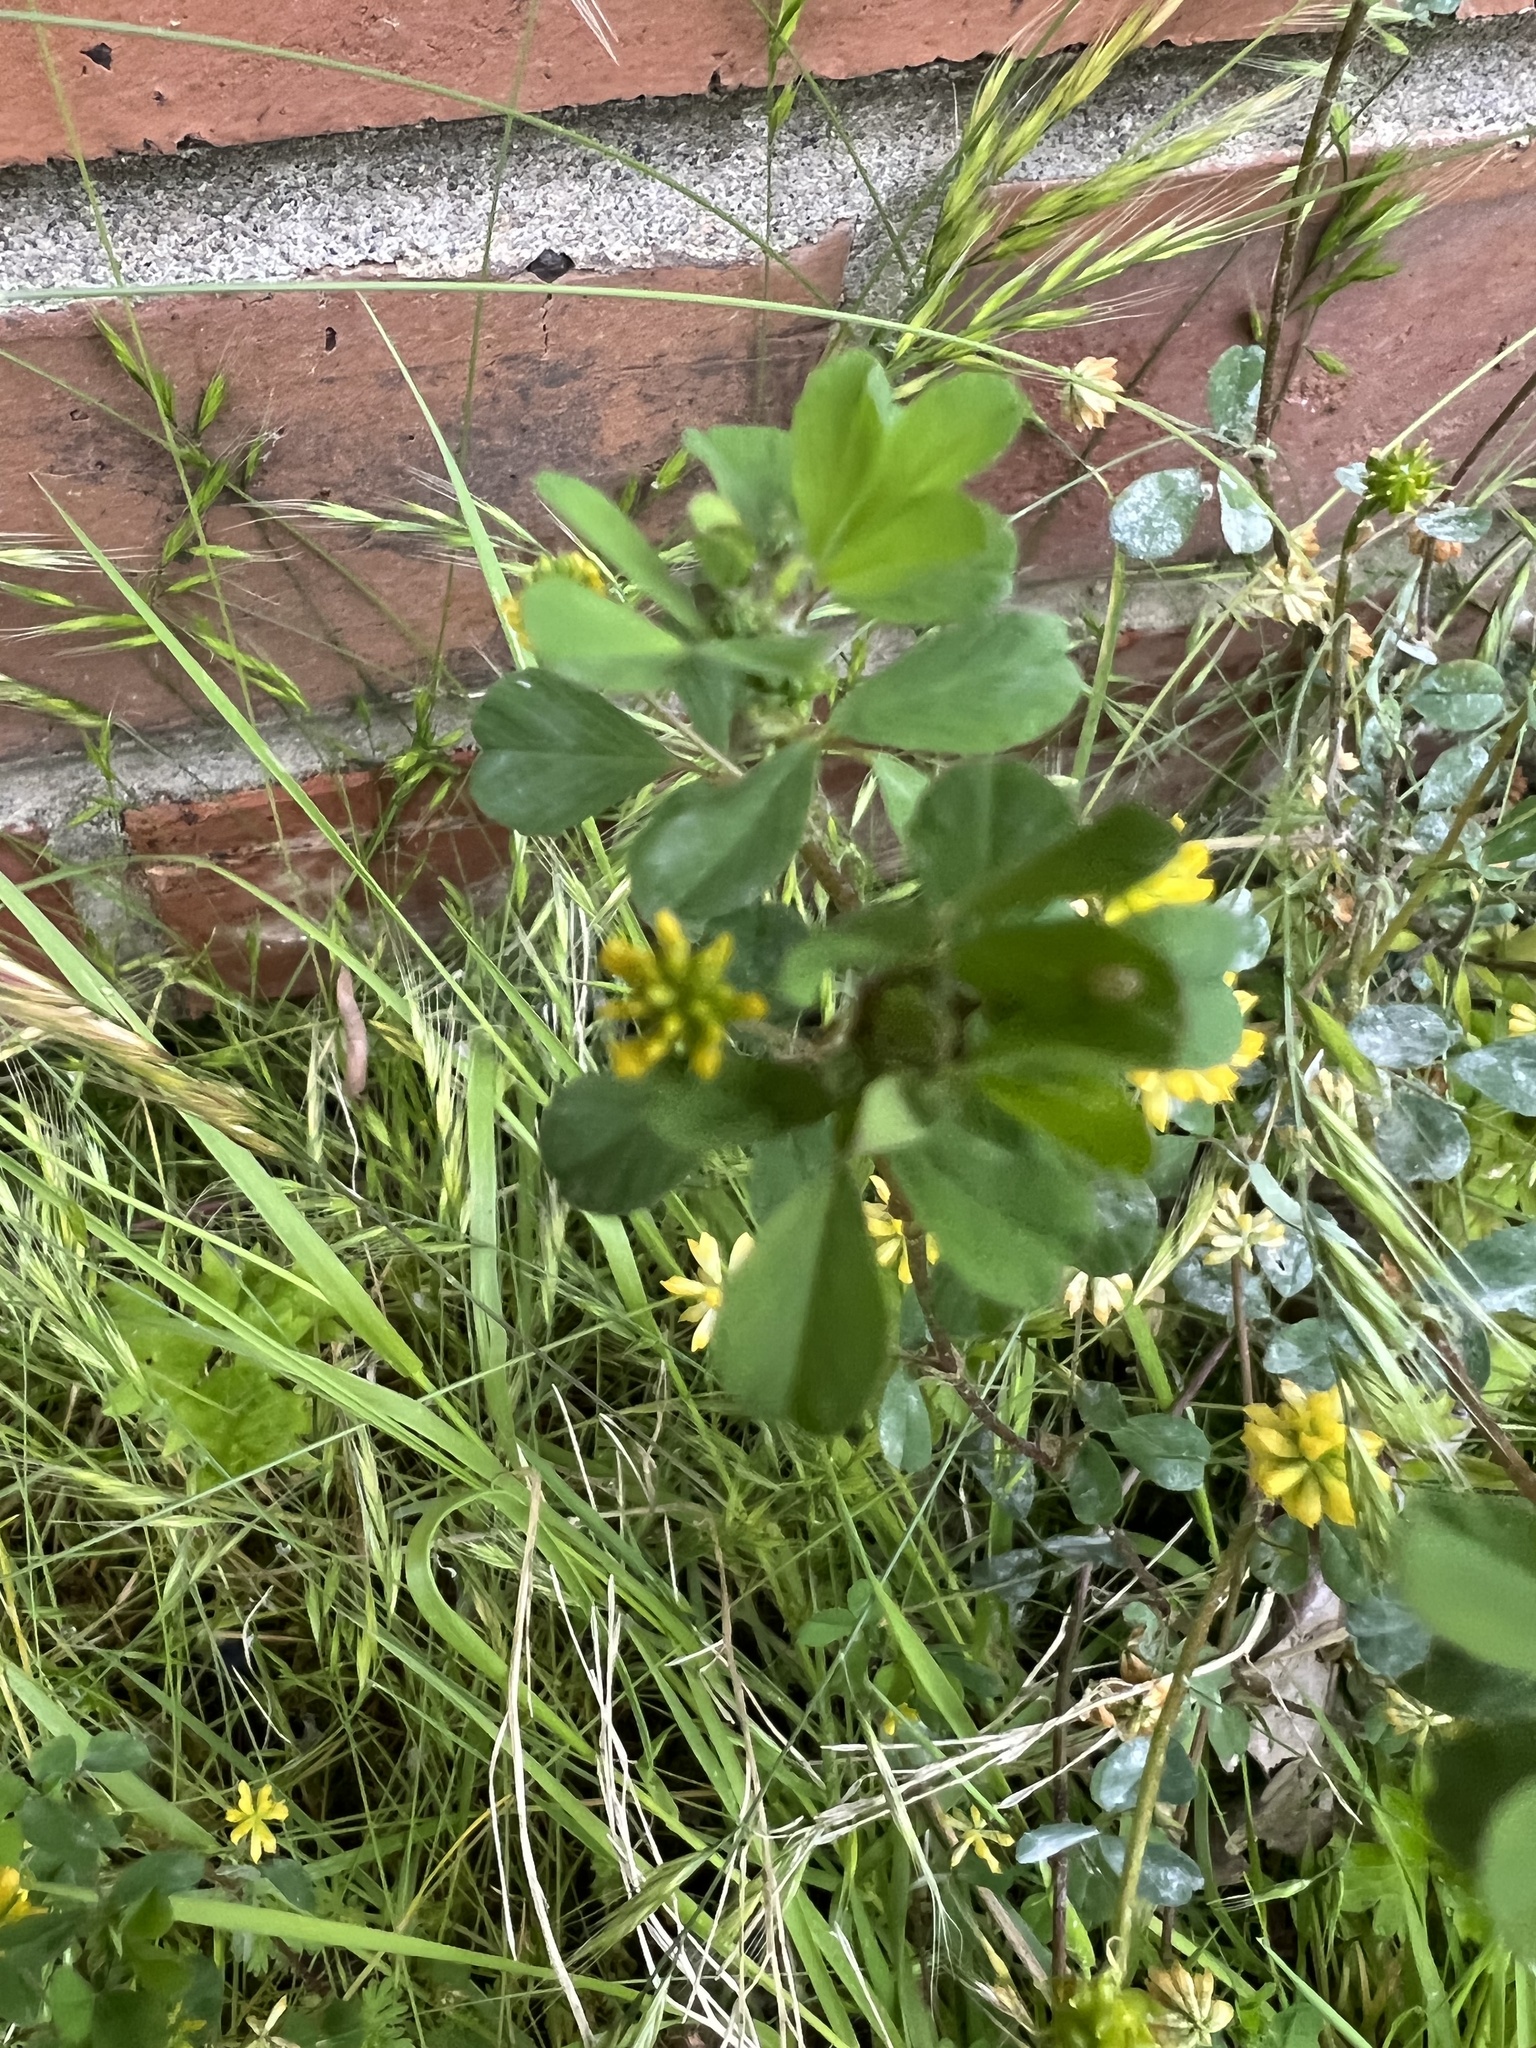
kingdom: Plantae
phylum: Tracheophyta
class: Magnoliopsida
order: Fabales
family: Fabaceae
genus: Trifolium
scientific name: Trifolium dubium
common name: Suckling clover
